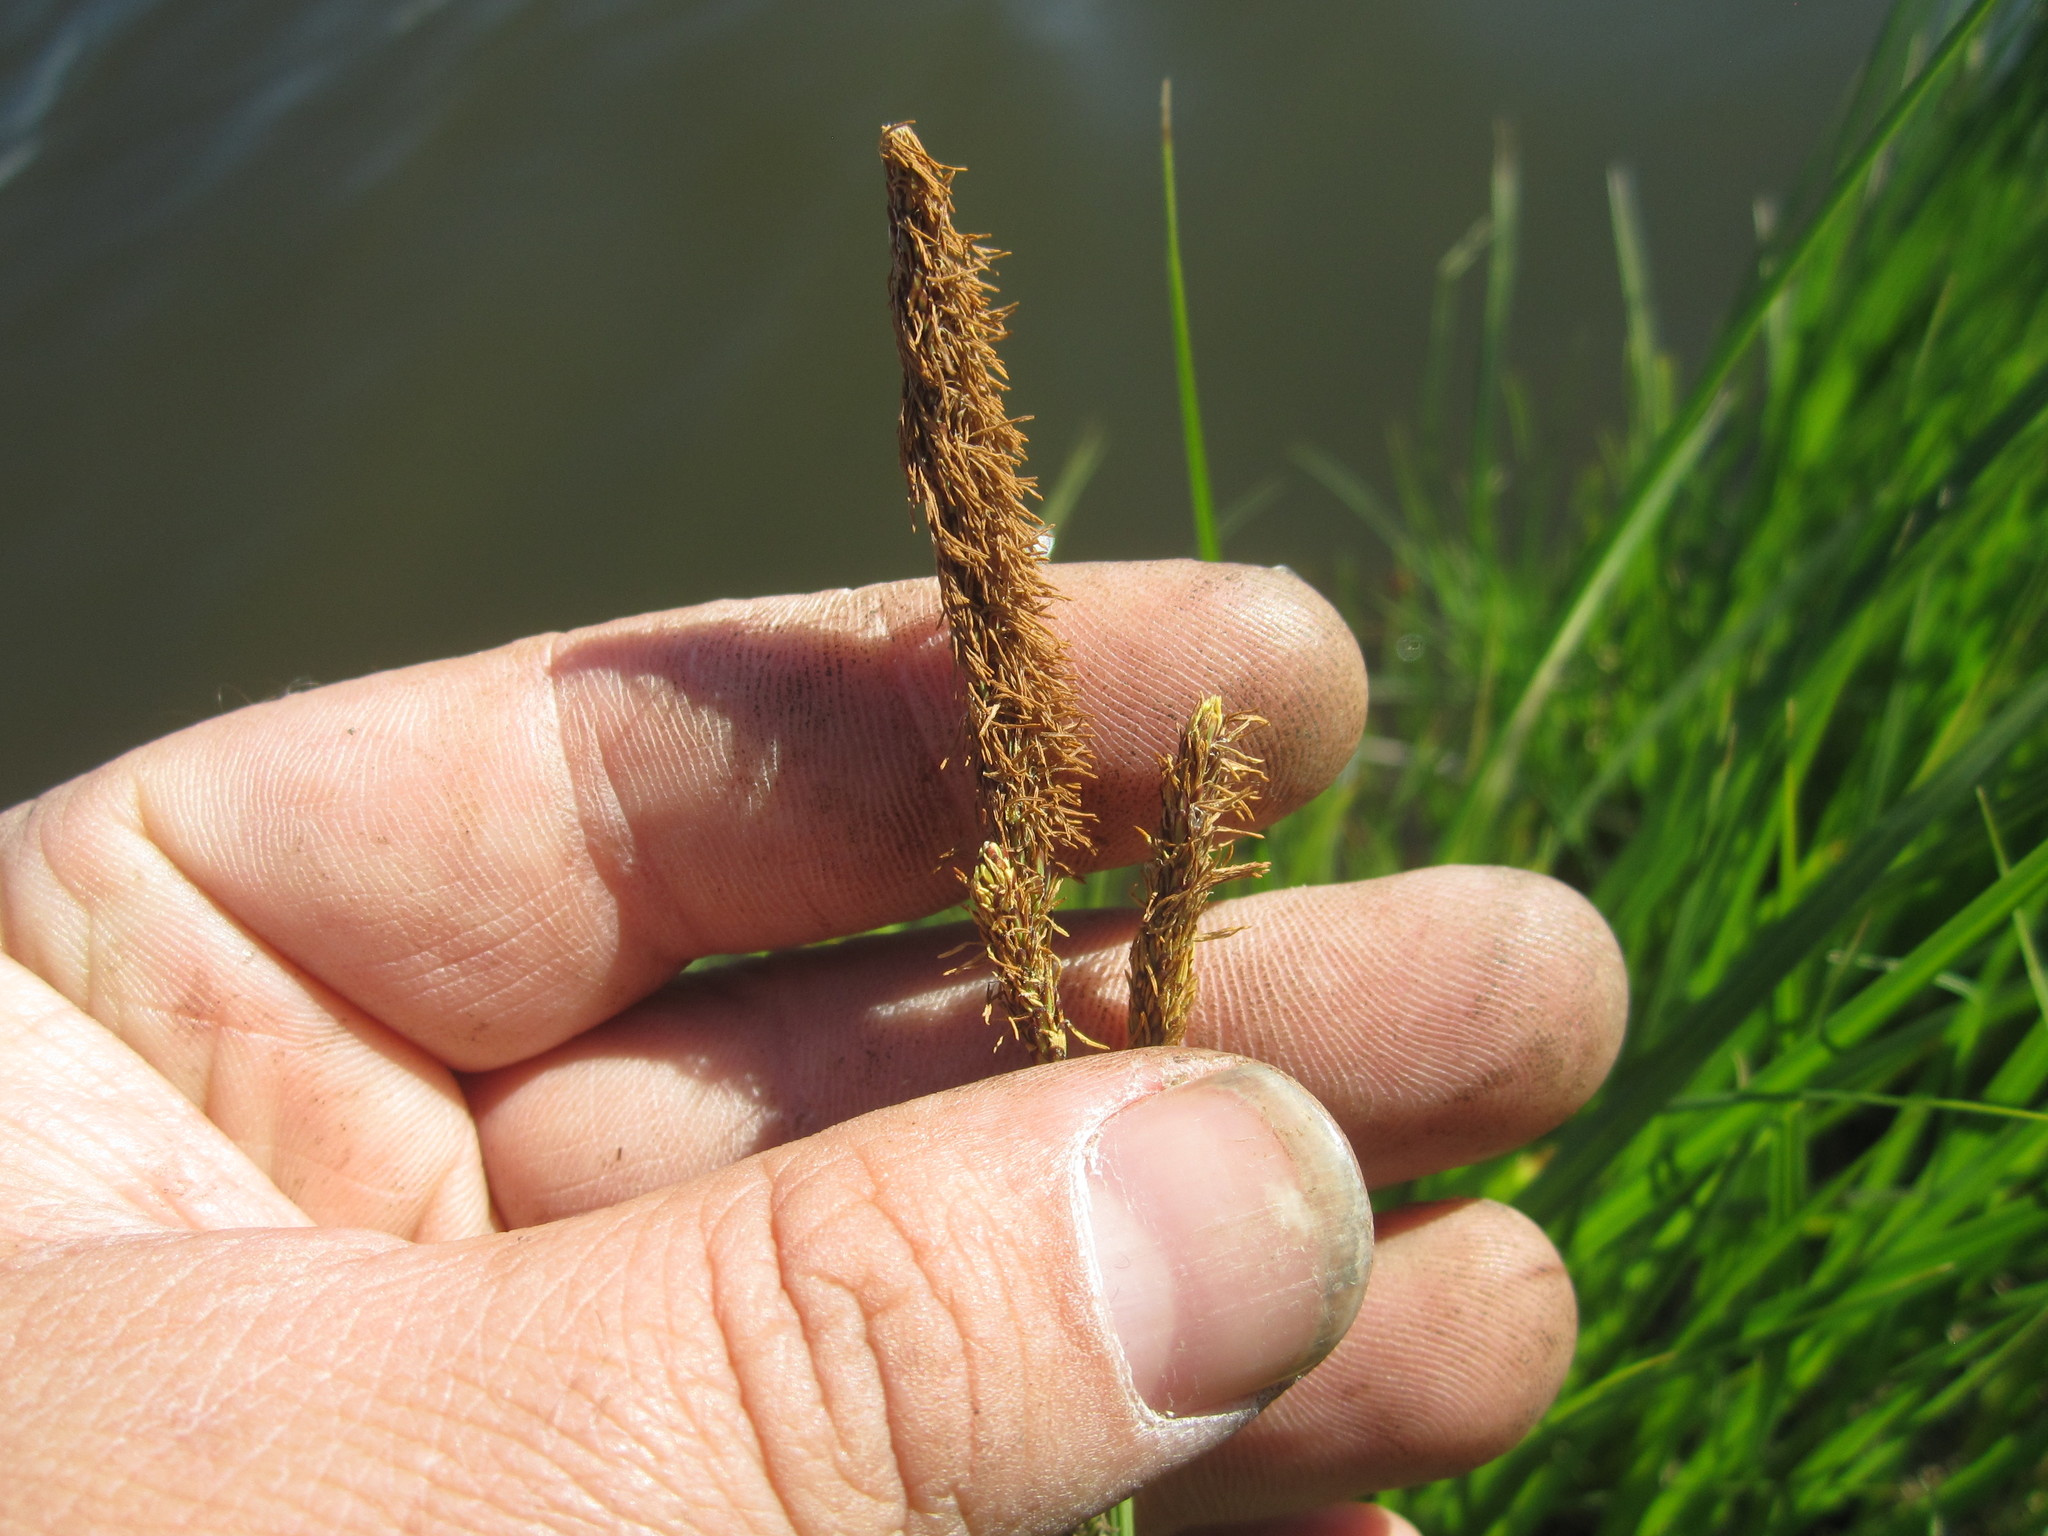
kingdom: Plantae
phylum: Tracheophyta
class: Liliopsida
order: Poales
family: Cyperaceae
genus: Carex
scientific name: Carex stricta
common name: Hummock sedge
